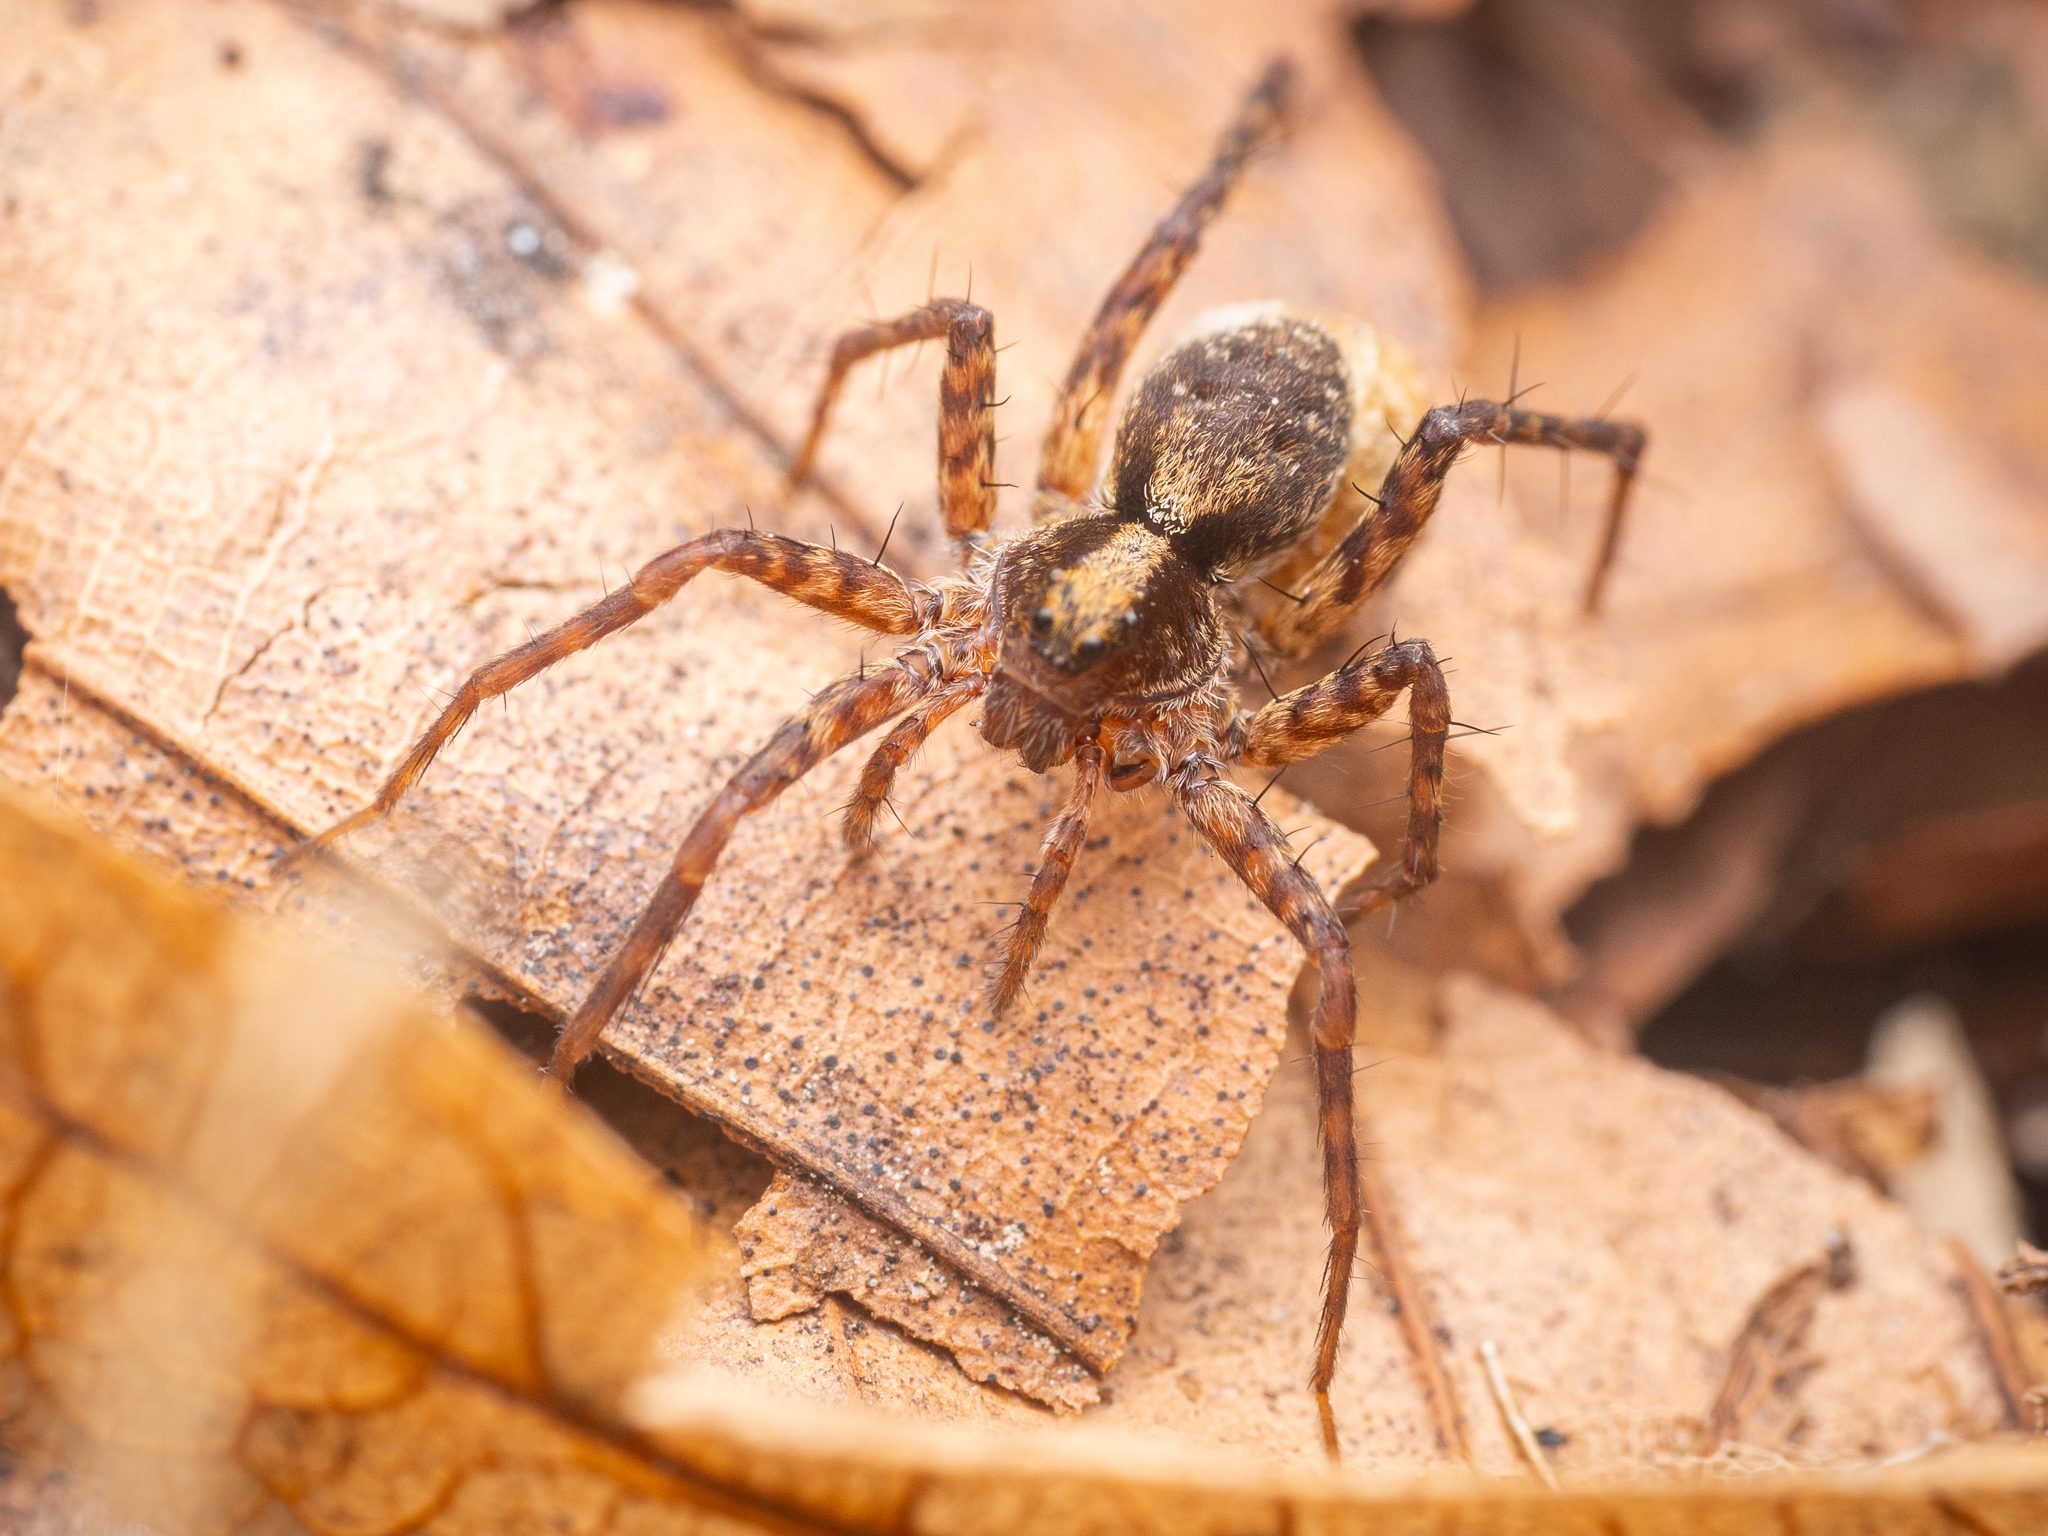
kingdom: Animalia
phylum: Arthropoda
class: Arachnida
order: Araneae
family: Lycosidae
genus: Pardosa
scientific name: Pardosa
